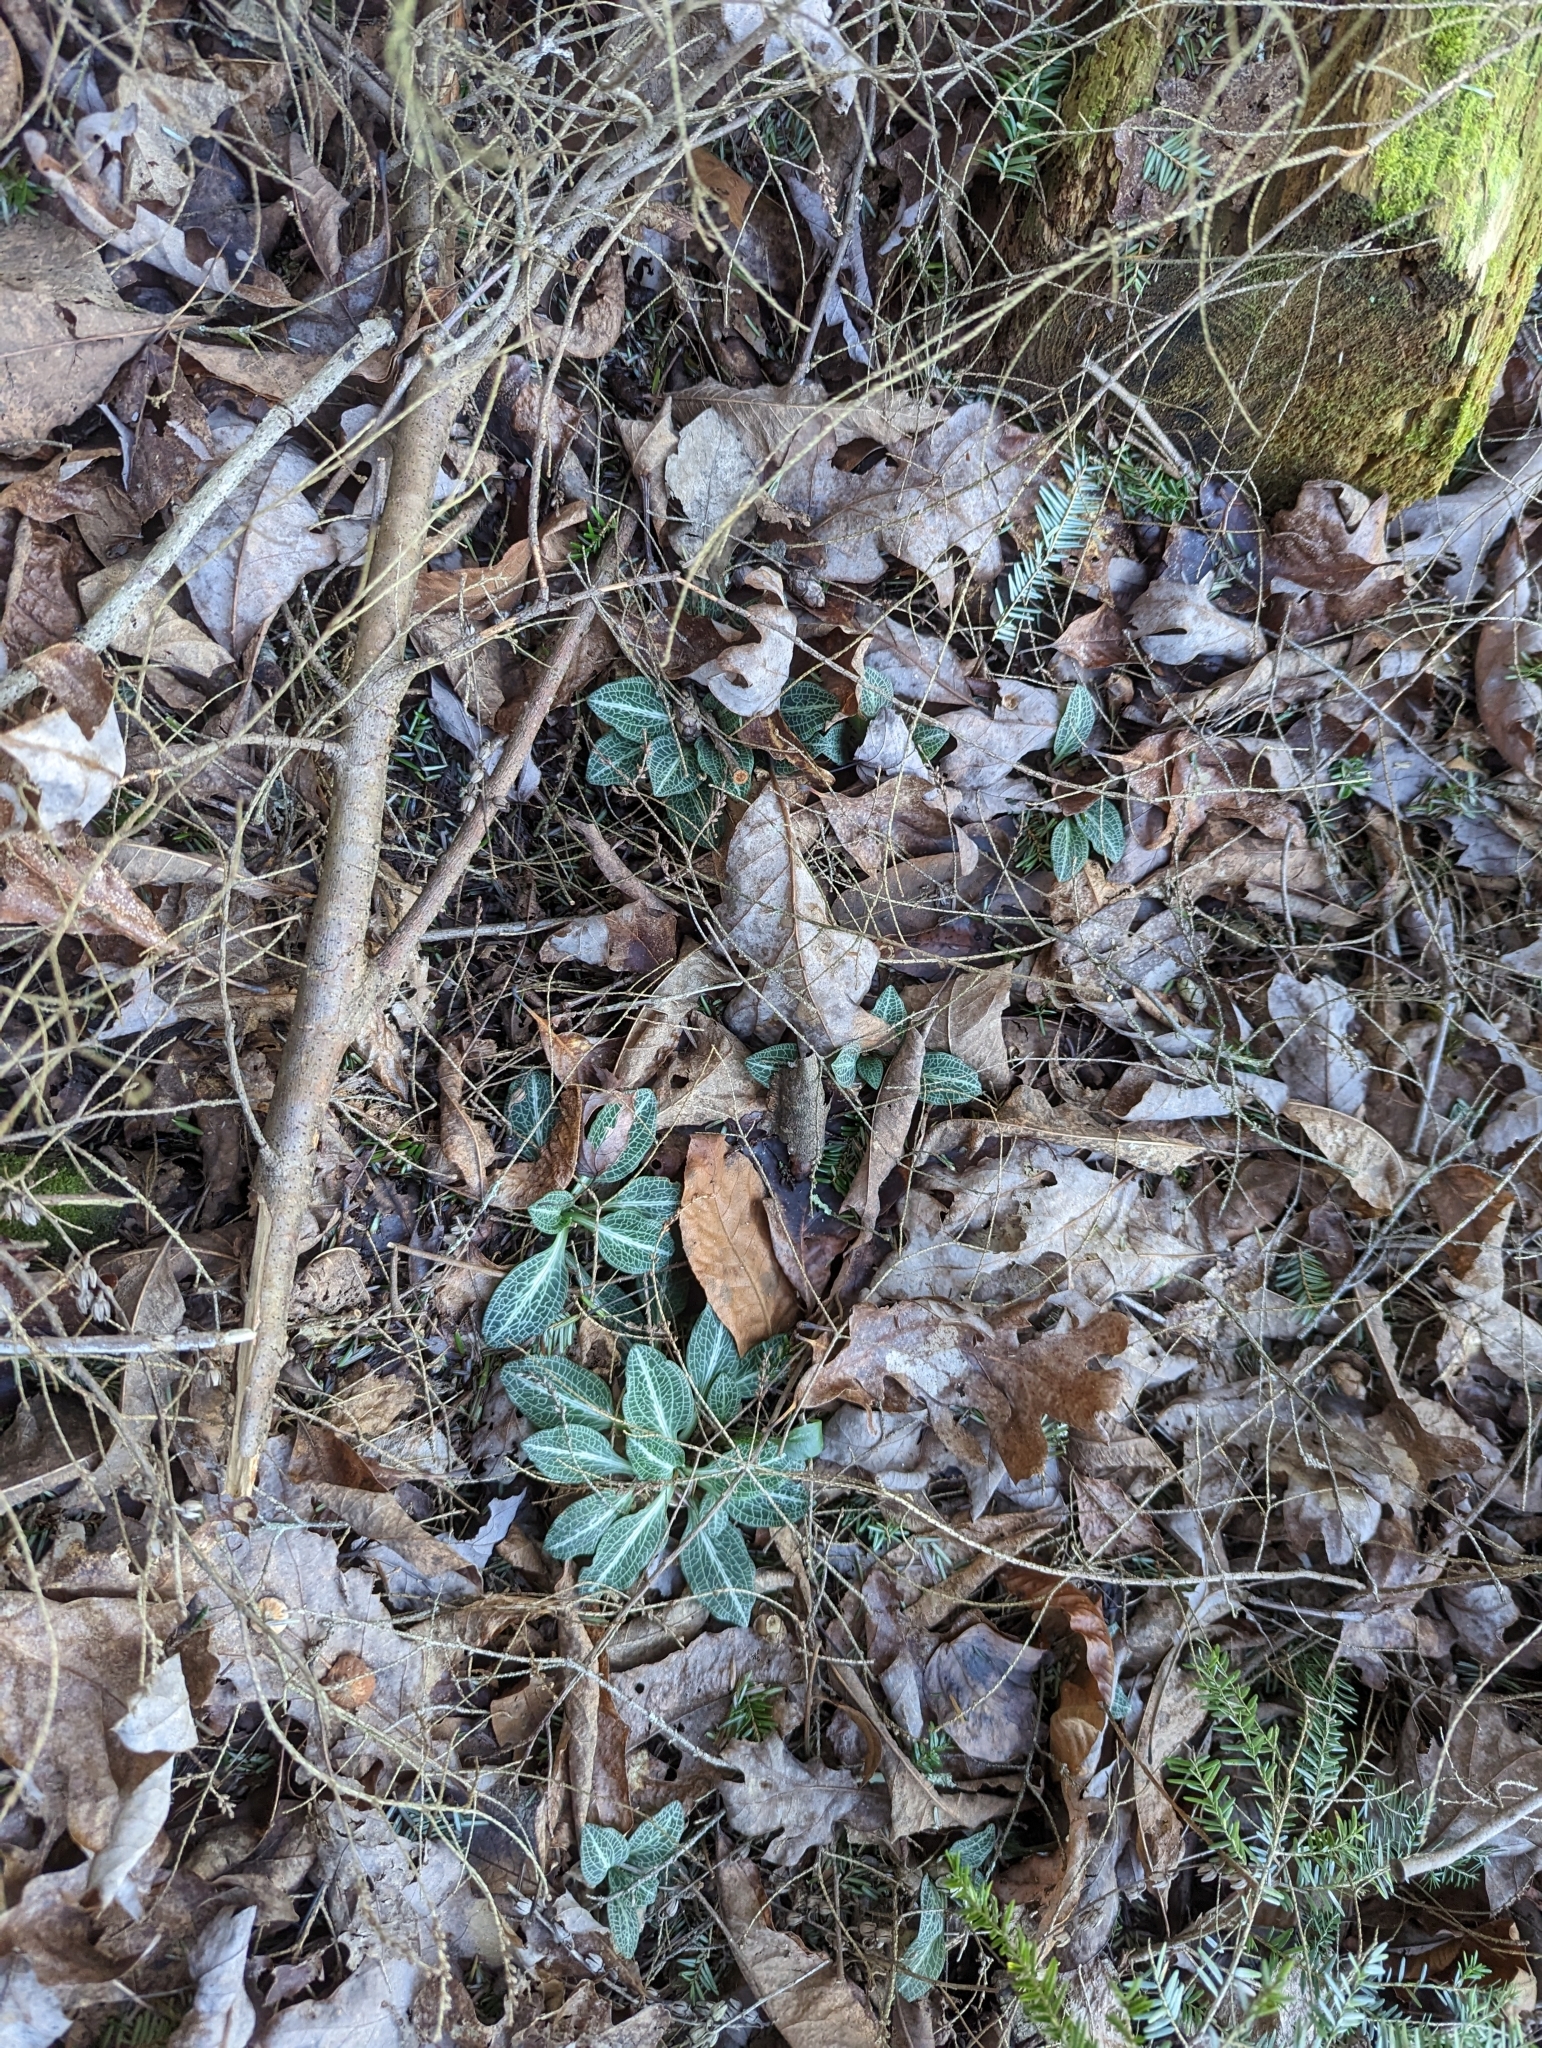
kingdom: Plantae
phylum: Tracheophyta
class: Liliopsida
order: Asparagales
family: Orchidaceae
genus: Goodyera
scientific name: Goodyera pubescens
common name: Downy rattlesnake-plantain
